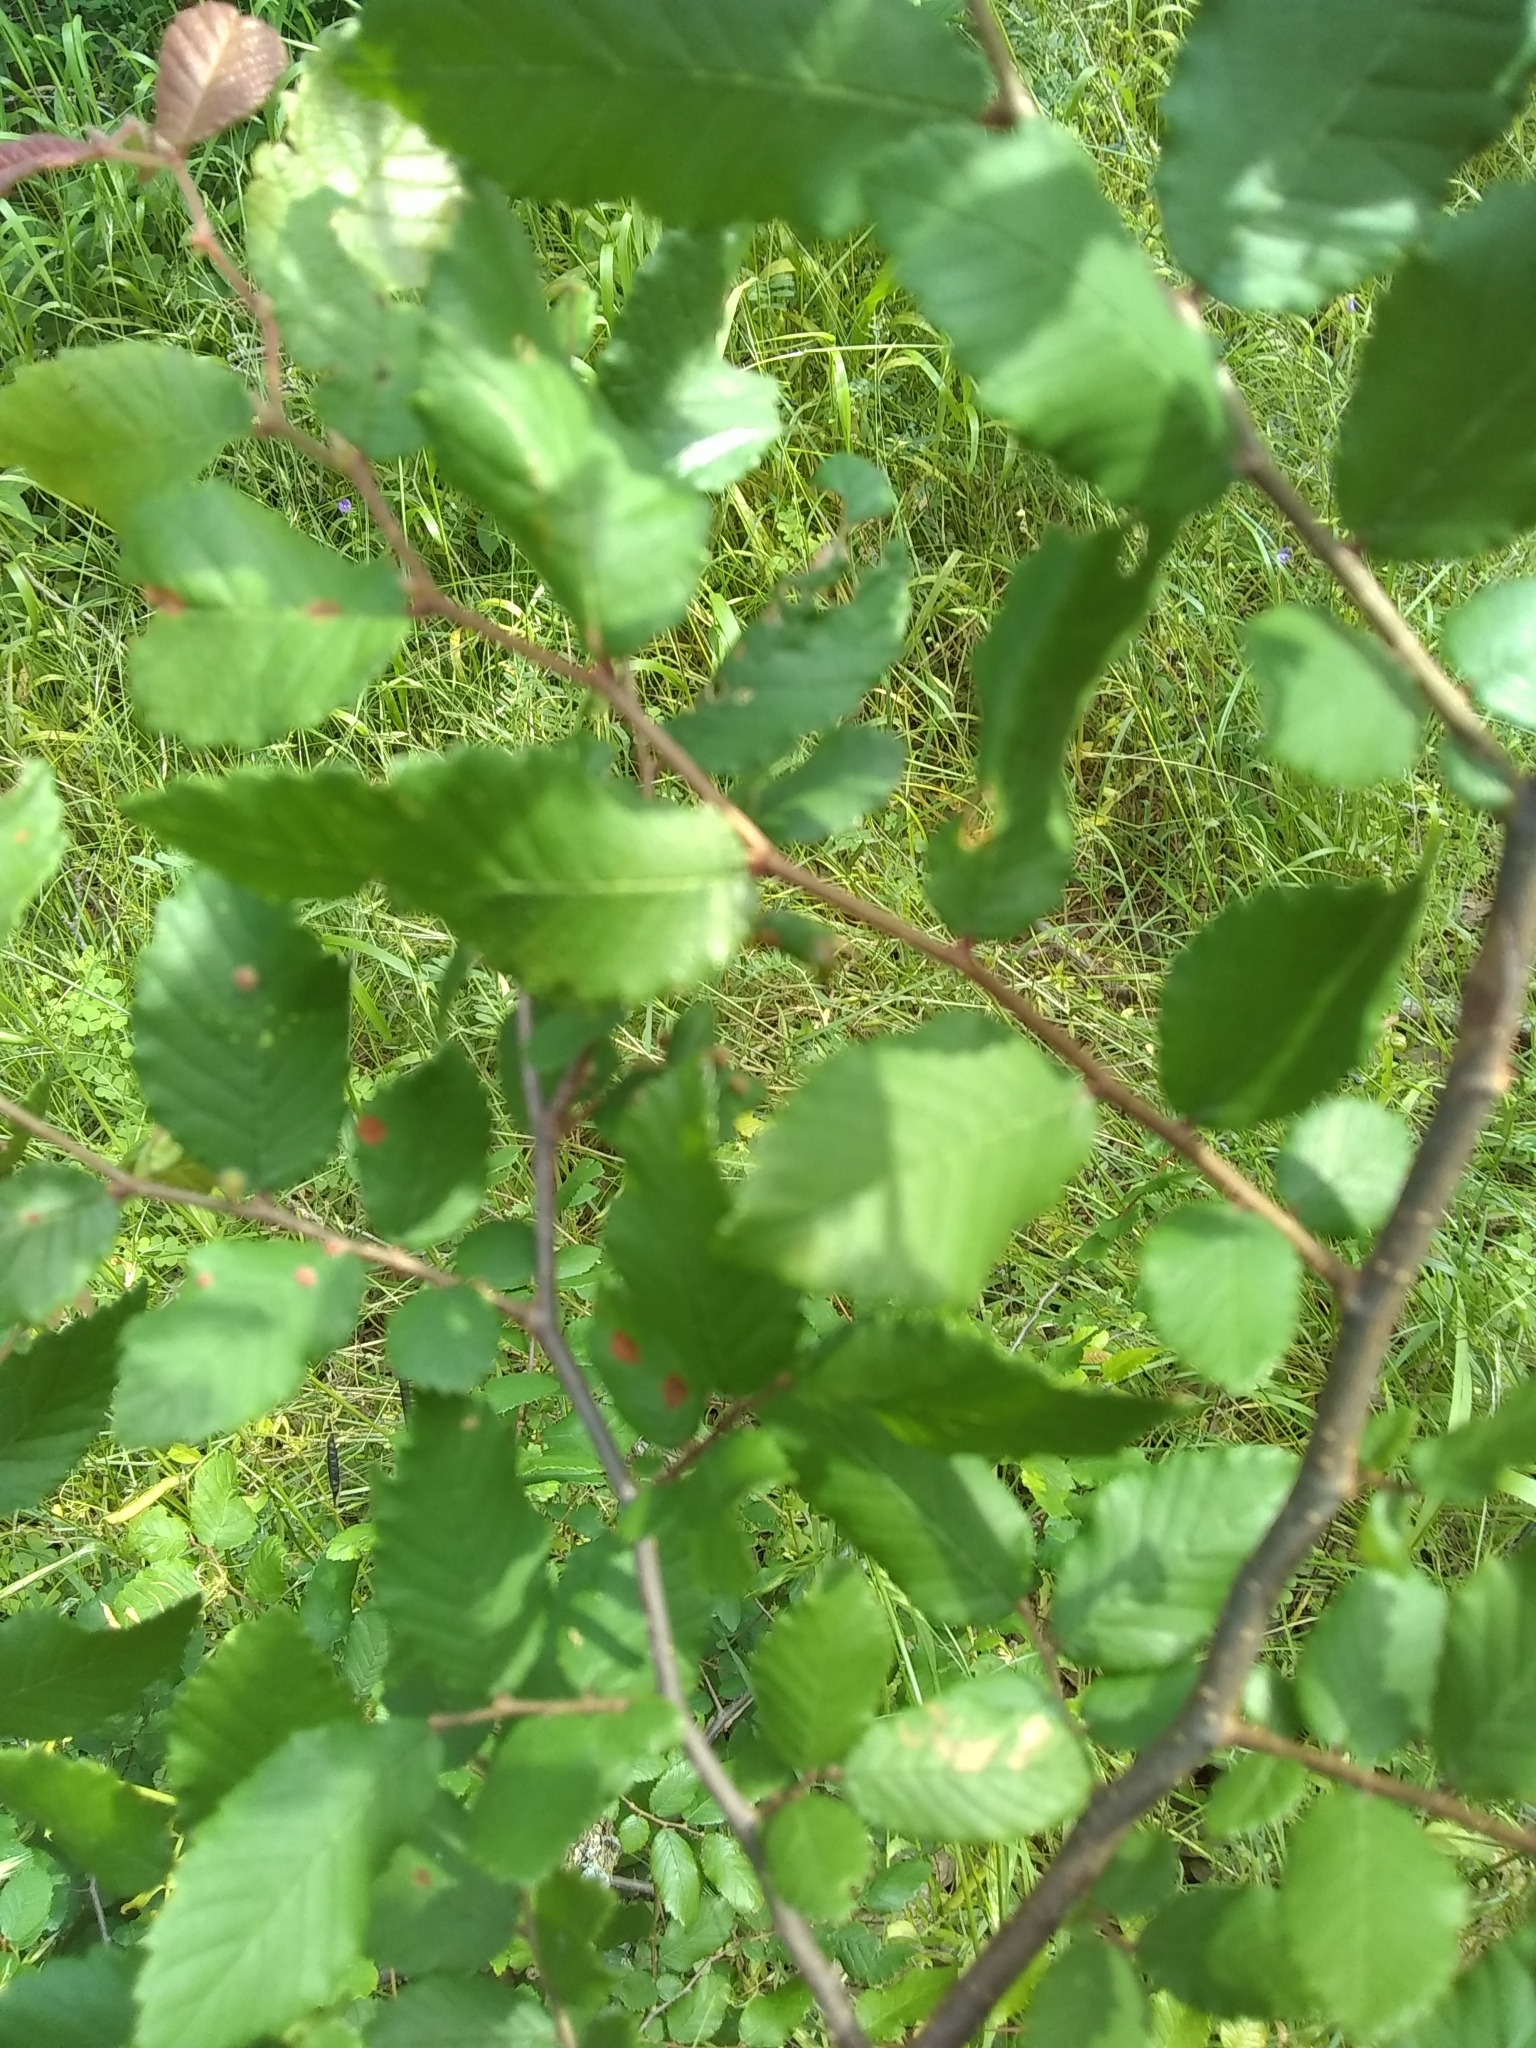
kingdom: Plantae
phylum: Tracheophyta
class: Magnoliopsida
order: Rosales
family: Ulmaceae
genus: Ulmus
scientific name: Ulmus crassifolia
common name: Basket elm
